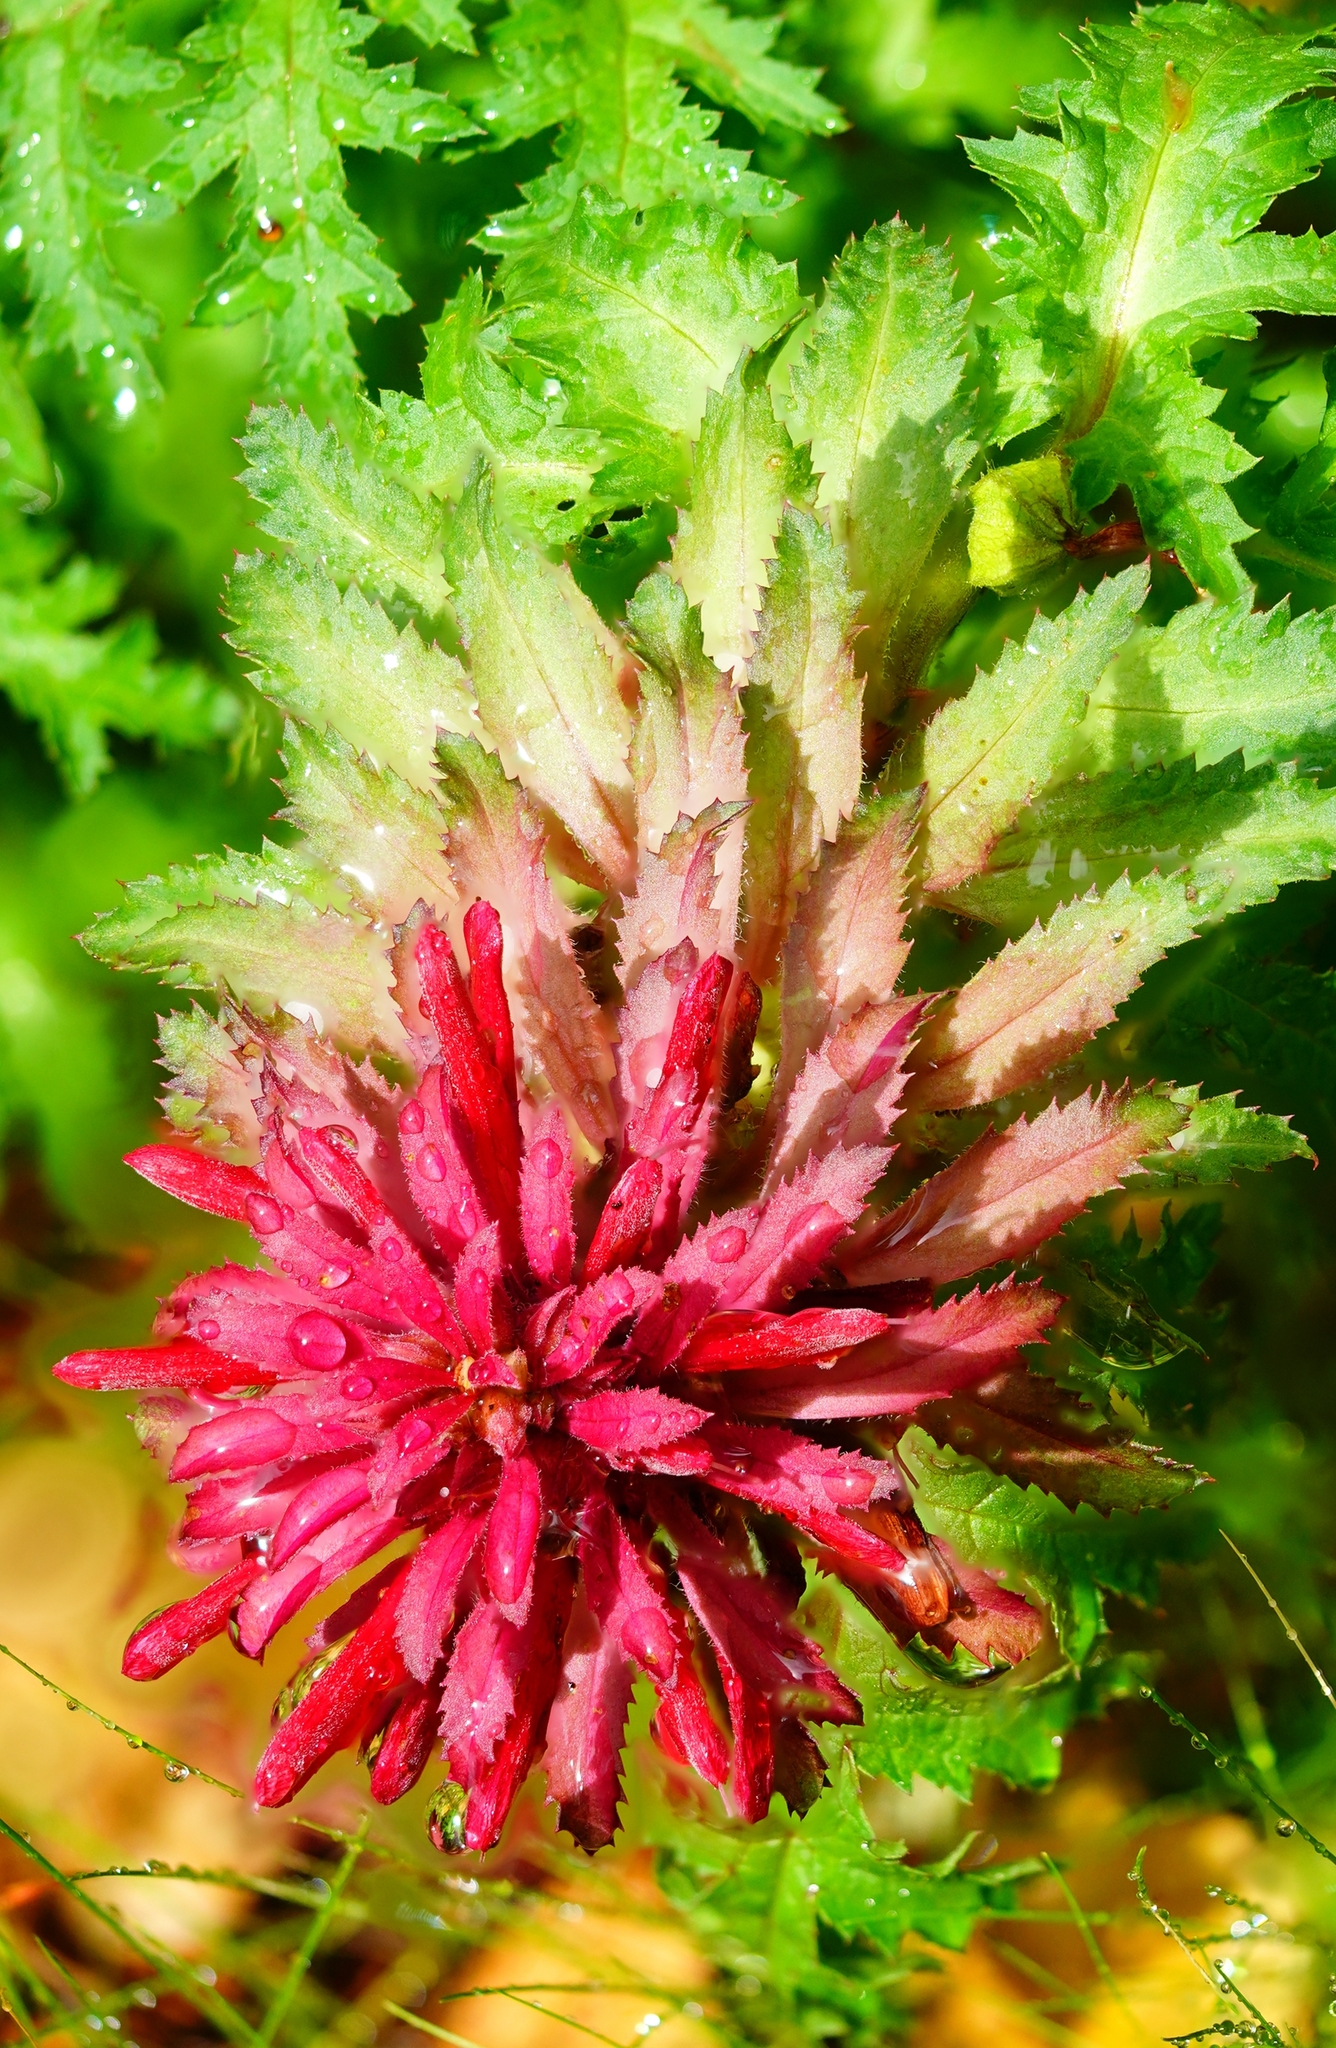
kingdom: Plantae
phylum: Tracheophyta
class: Magnoliopsida
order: Lamiales
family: Orobanchaceae
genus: Pedicularis
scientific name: Pedicularis densiflora
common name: Indian warrior
